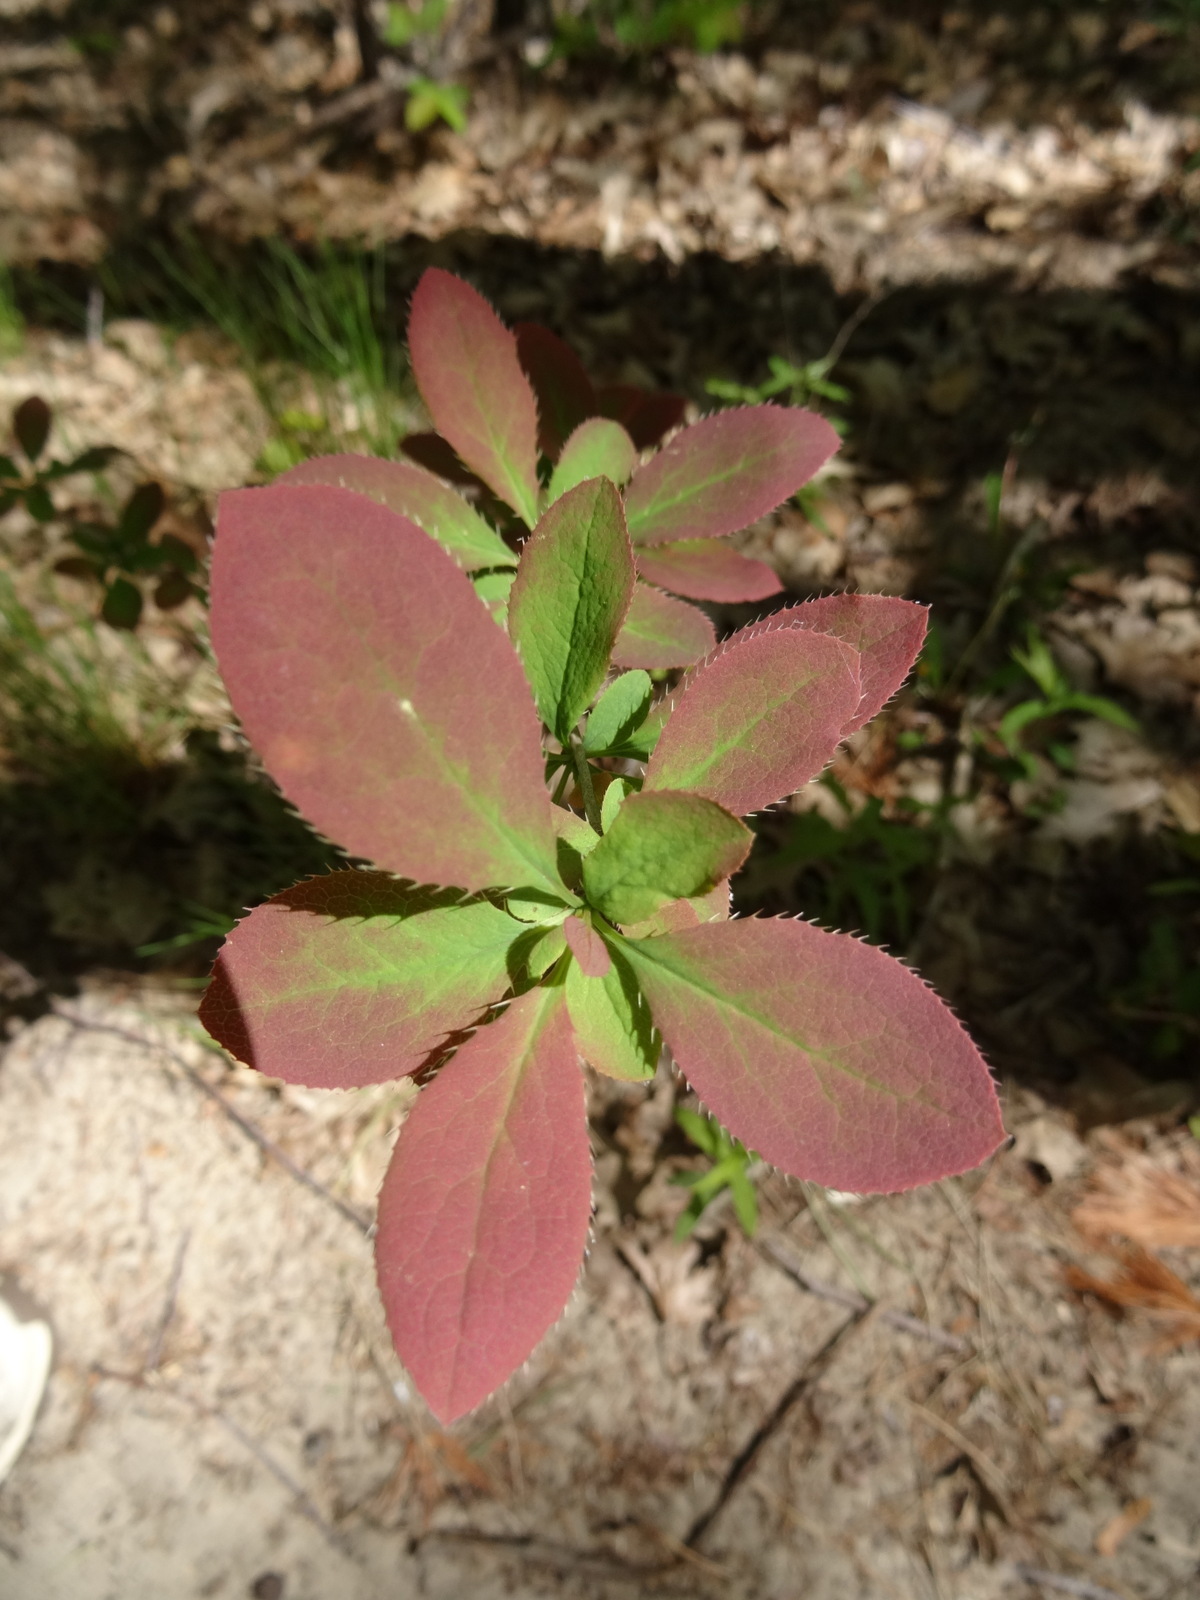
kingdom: Plantae
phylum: Tracheophyta
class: Magnoliopsida
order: Ranunculales
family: Berberidaceae
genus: Berberis
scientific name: Berberis vulgaris
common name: Barberry
